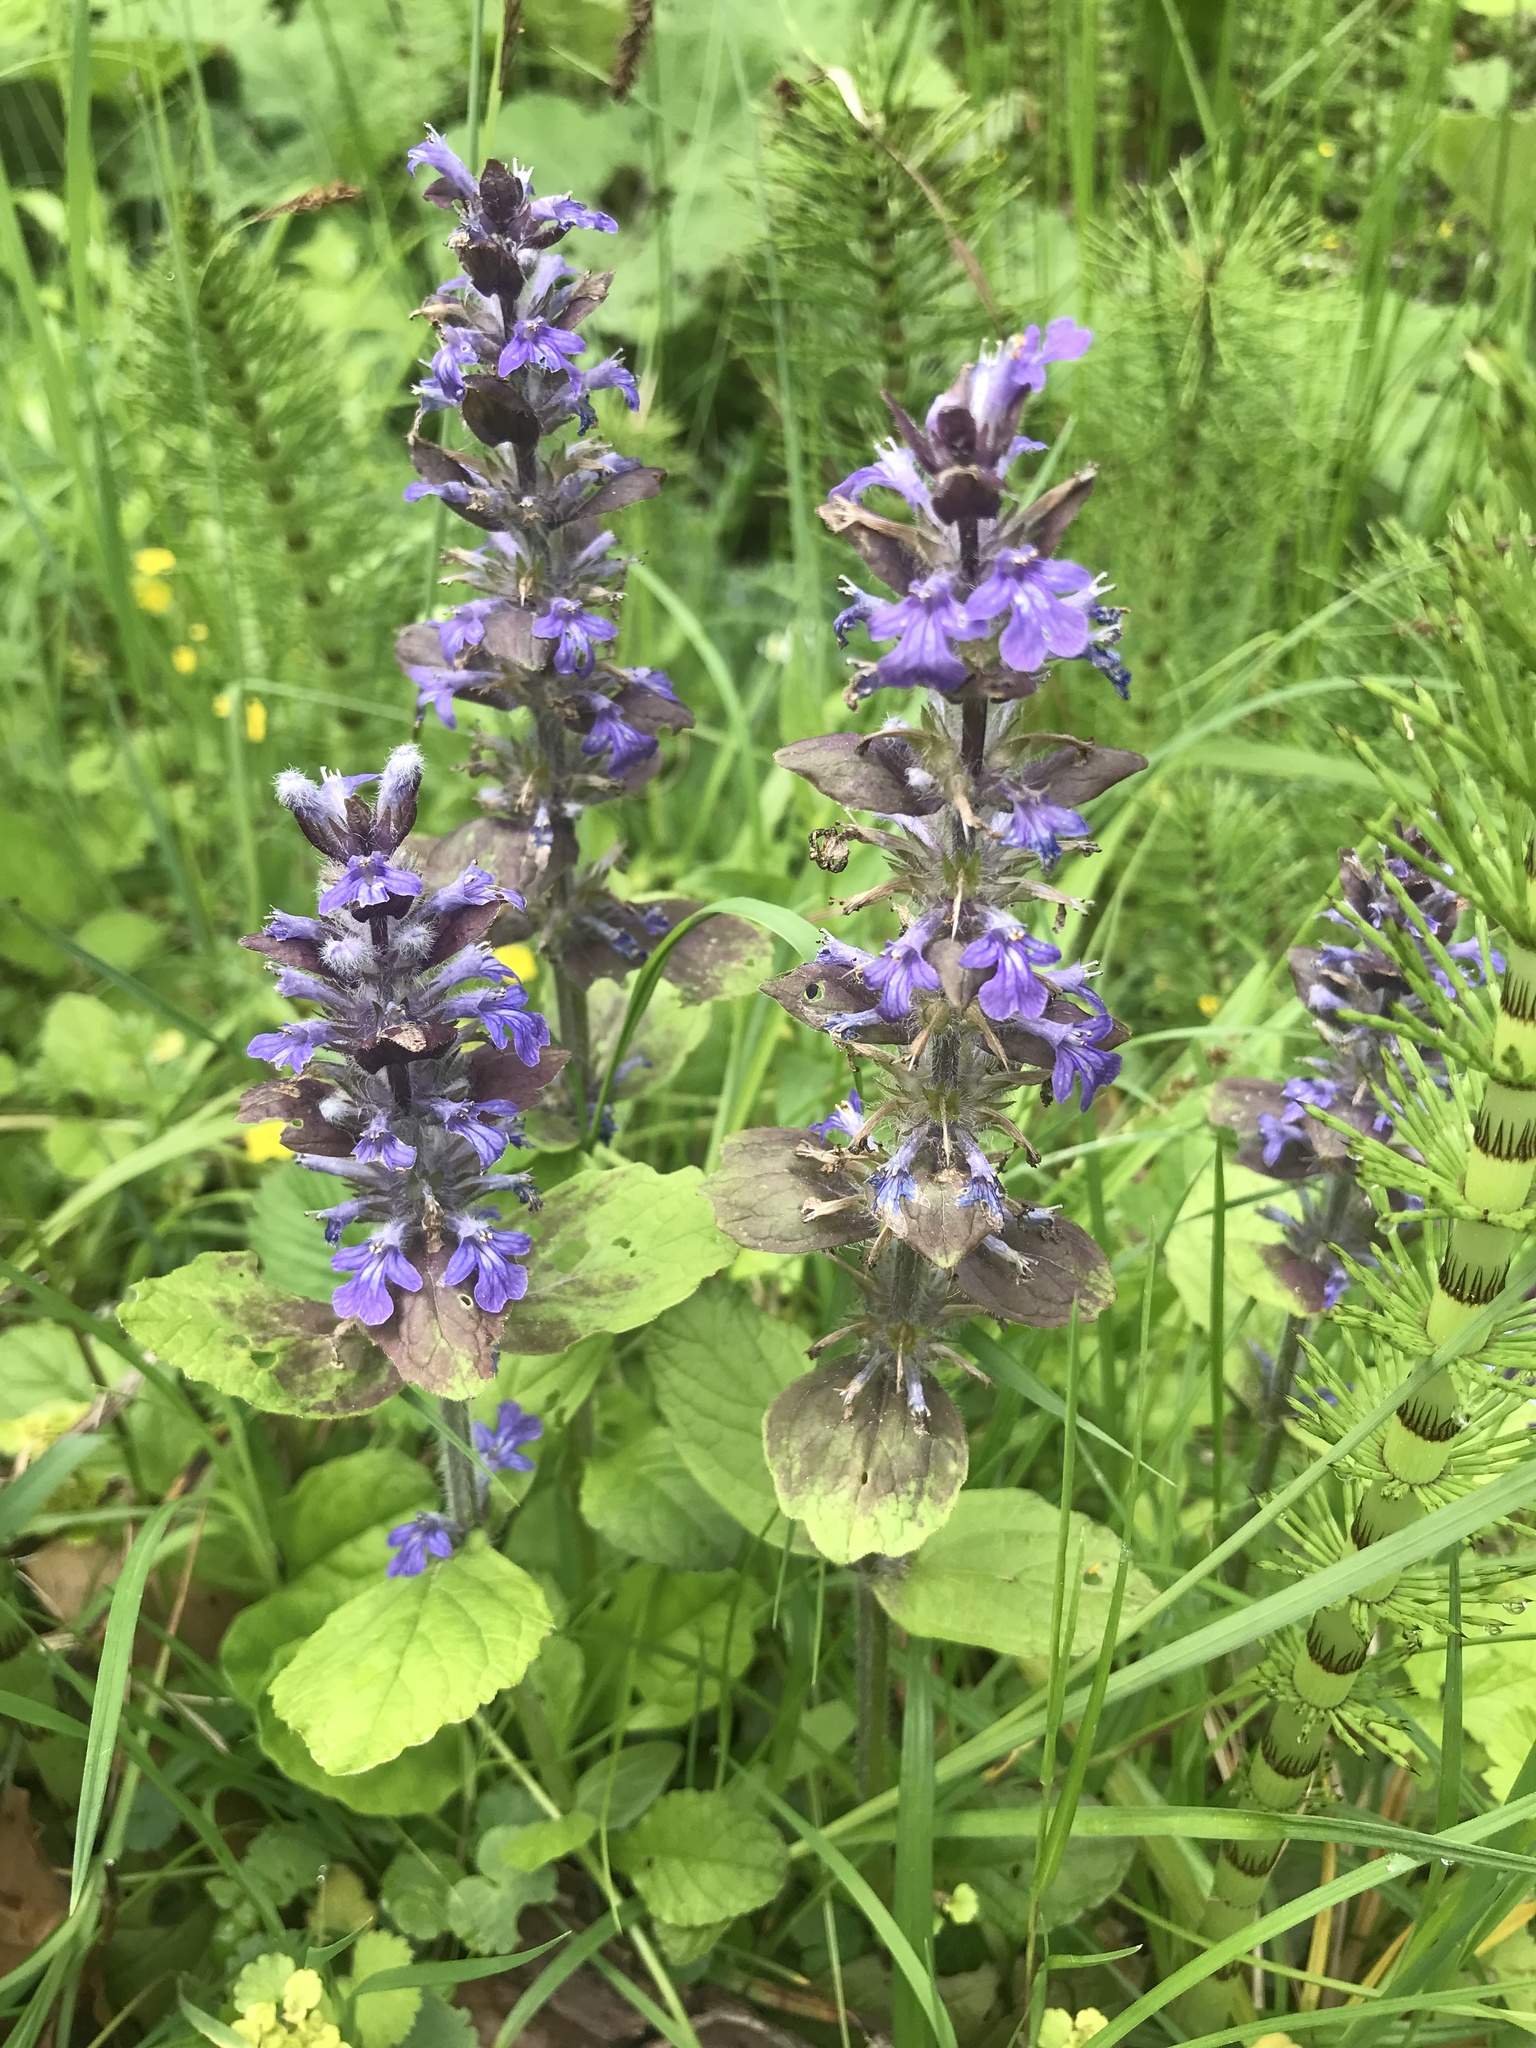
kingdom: Plantae
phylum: Tracheophyta
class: Magnoliopsida
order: Lamiales
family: Lamiaceae
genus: Ajuga
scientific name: Ajuga reptans
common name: Bugle
